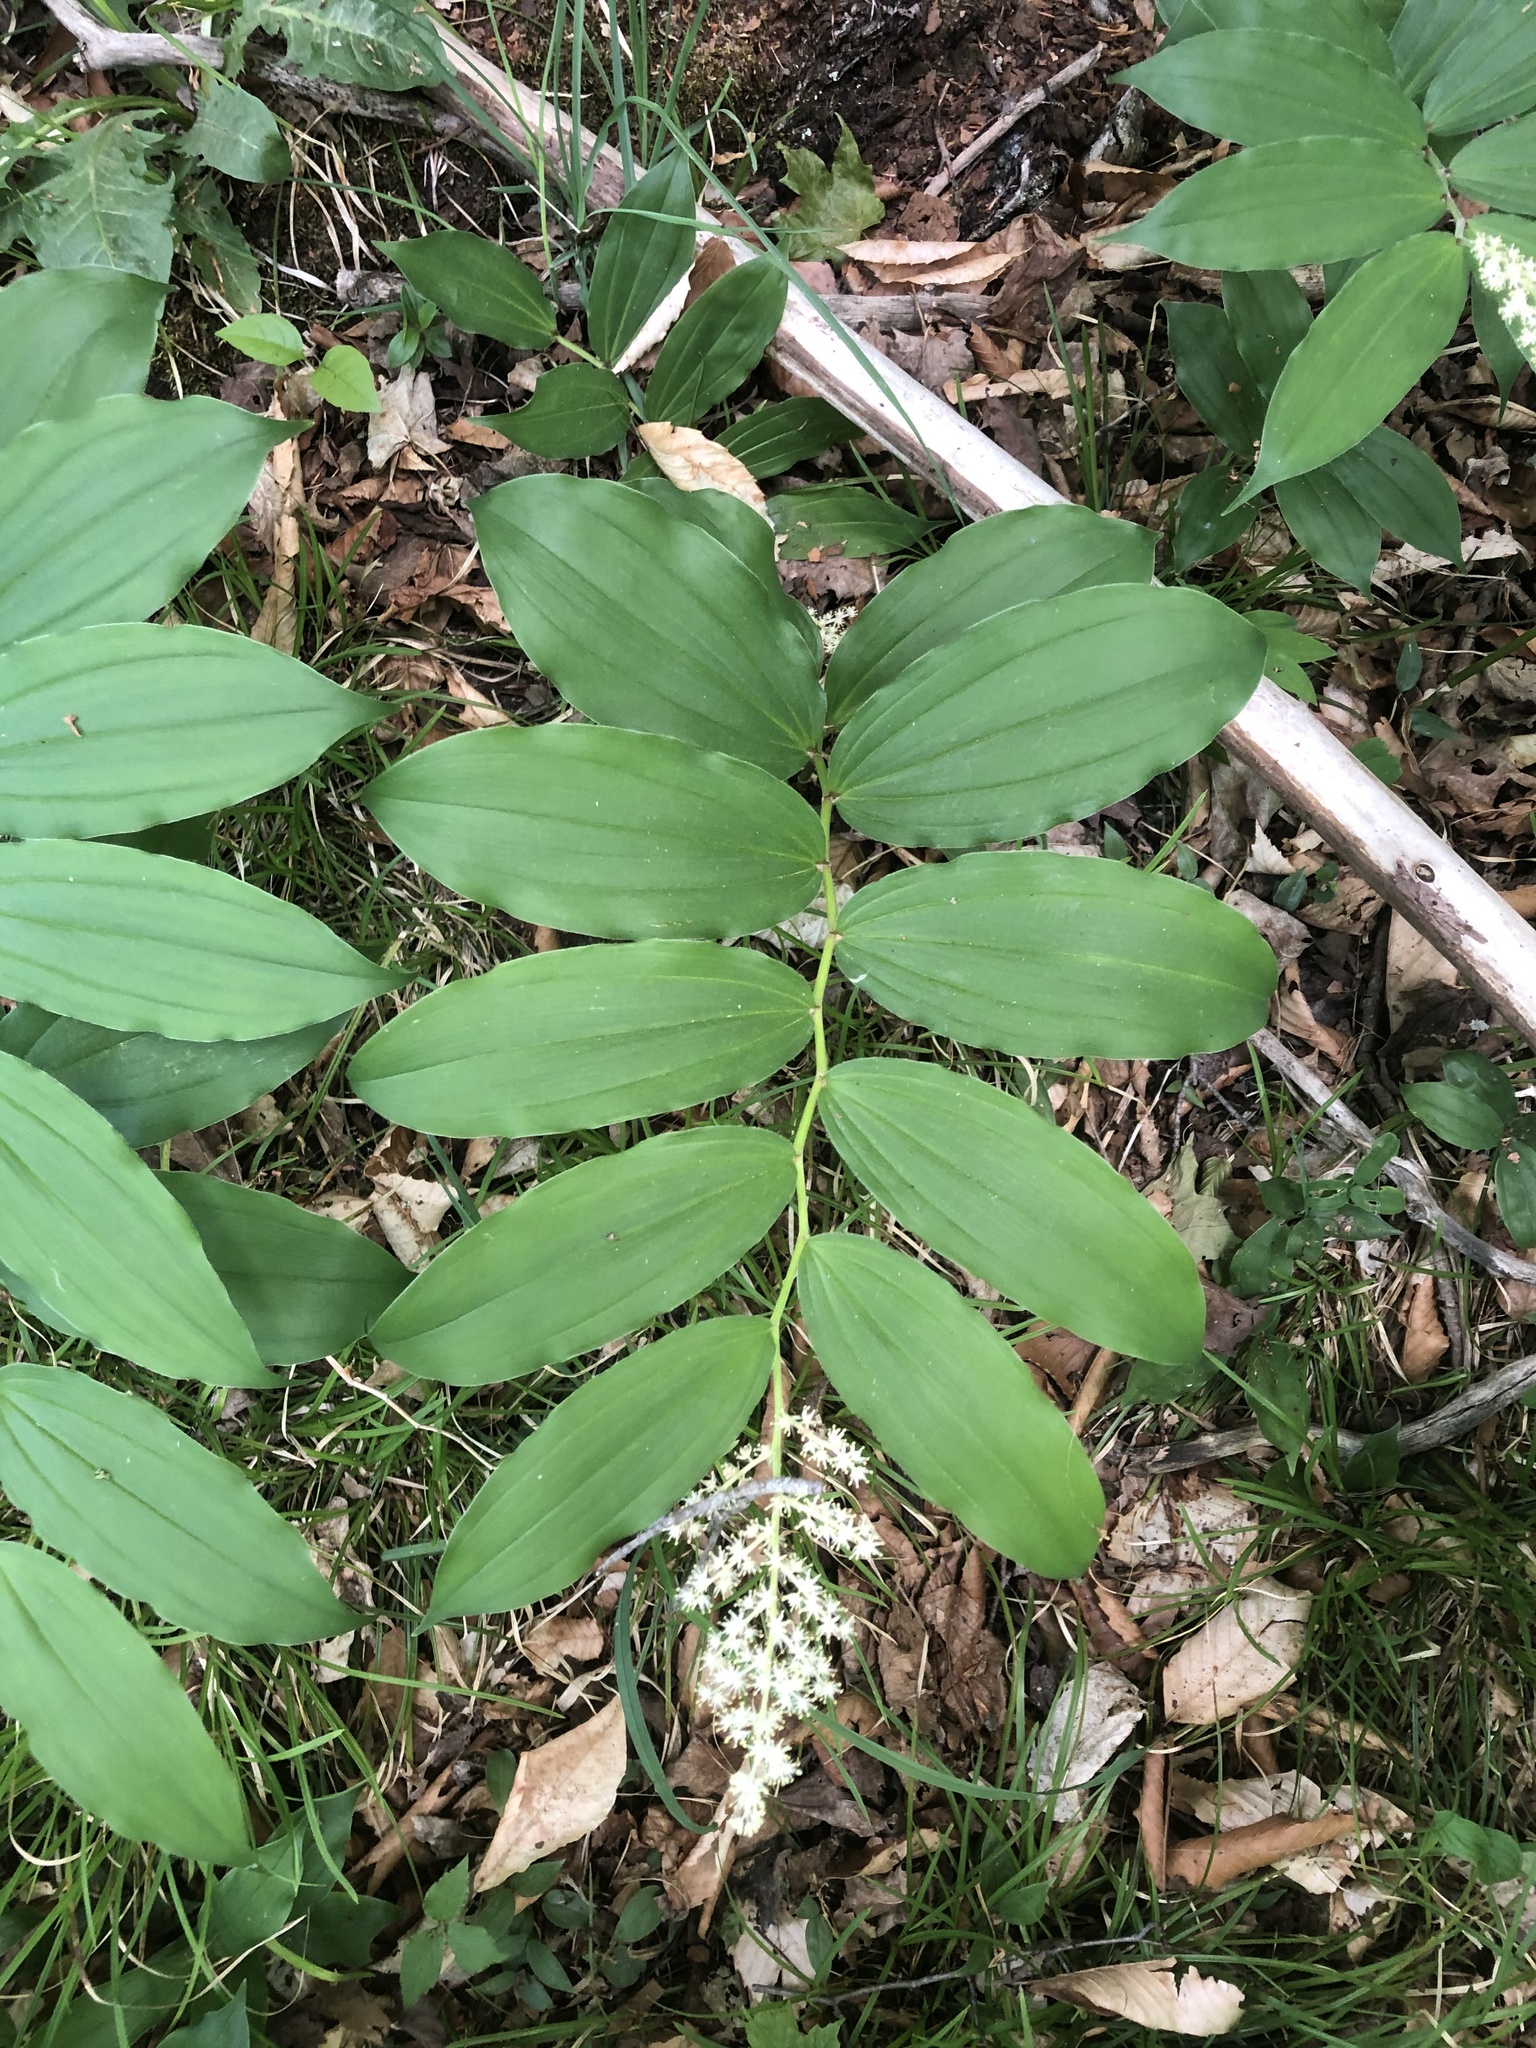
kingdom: Plantae
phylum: Tracheophyta
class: Liliopsida
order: Asparagales
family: Asparagaceae
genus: Maianthemum
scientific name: Maianthemum racemosum
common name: False spikenard
